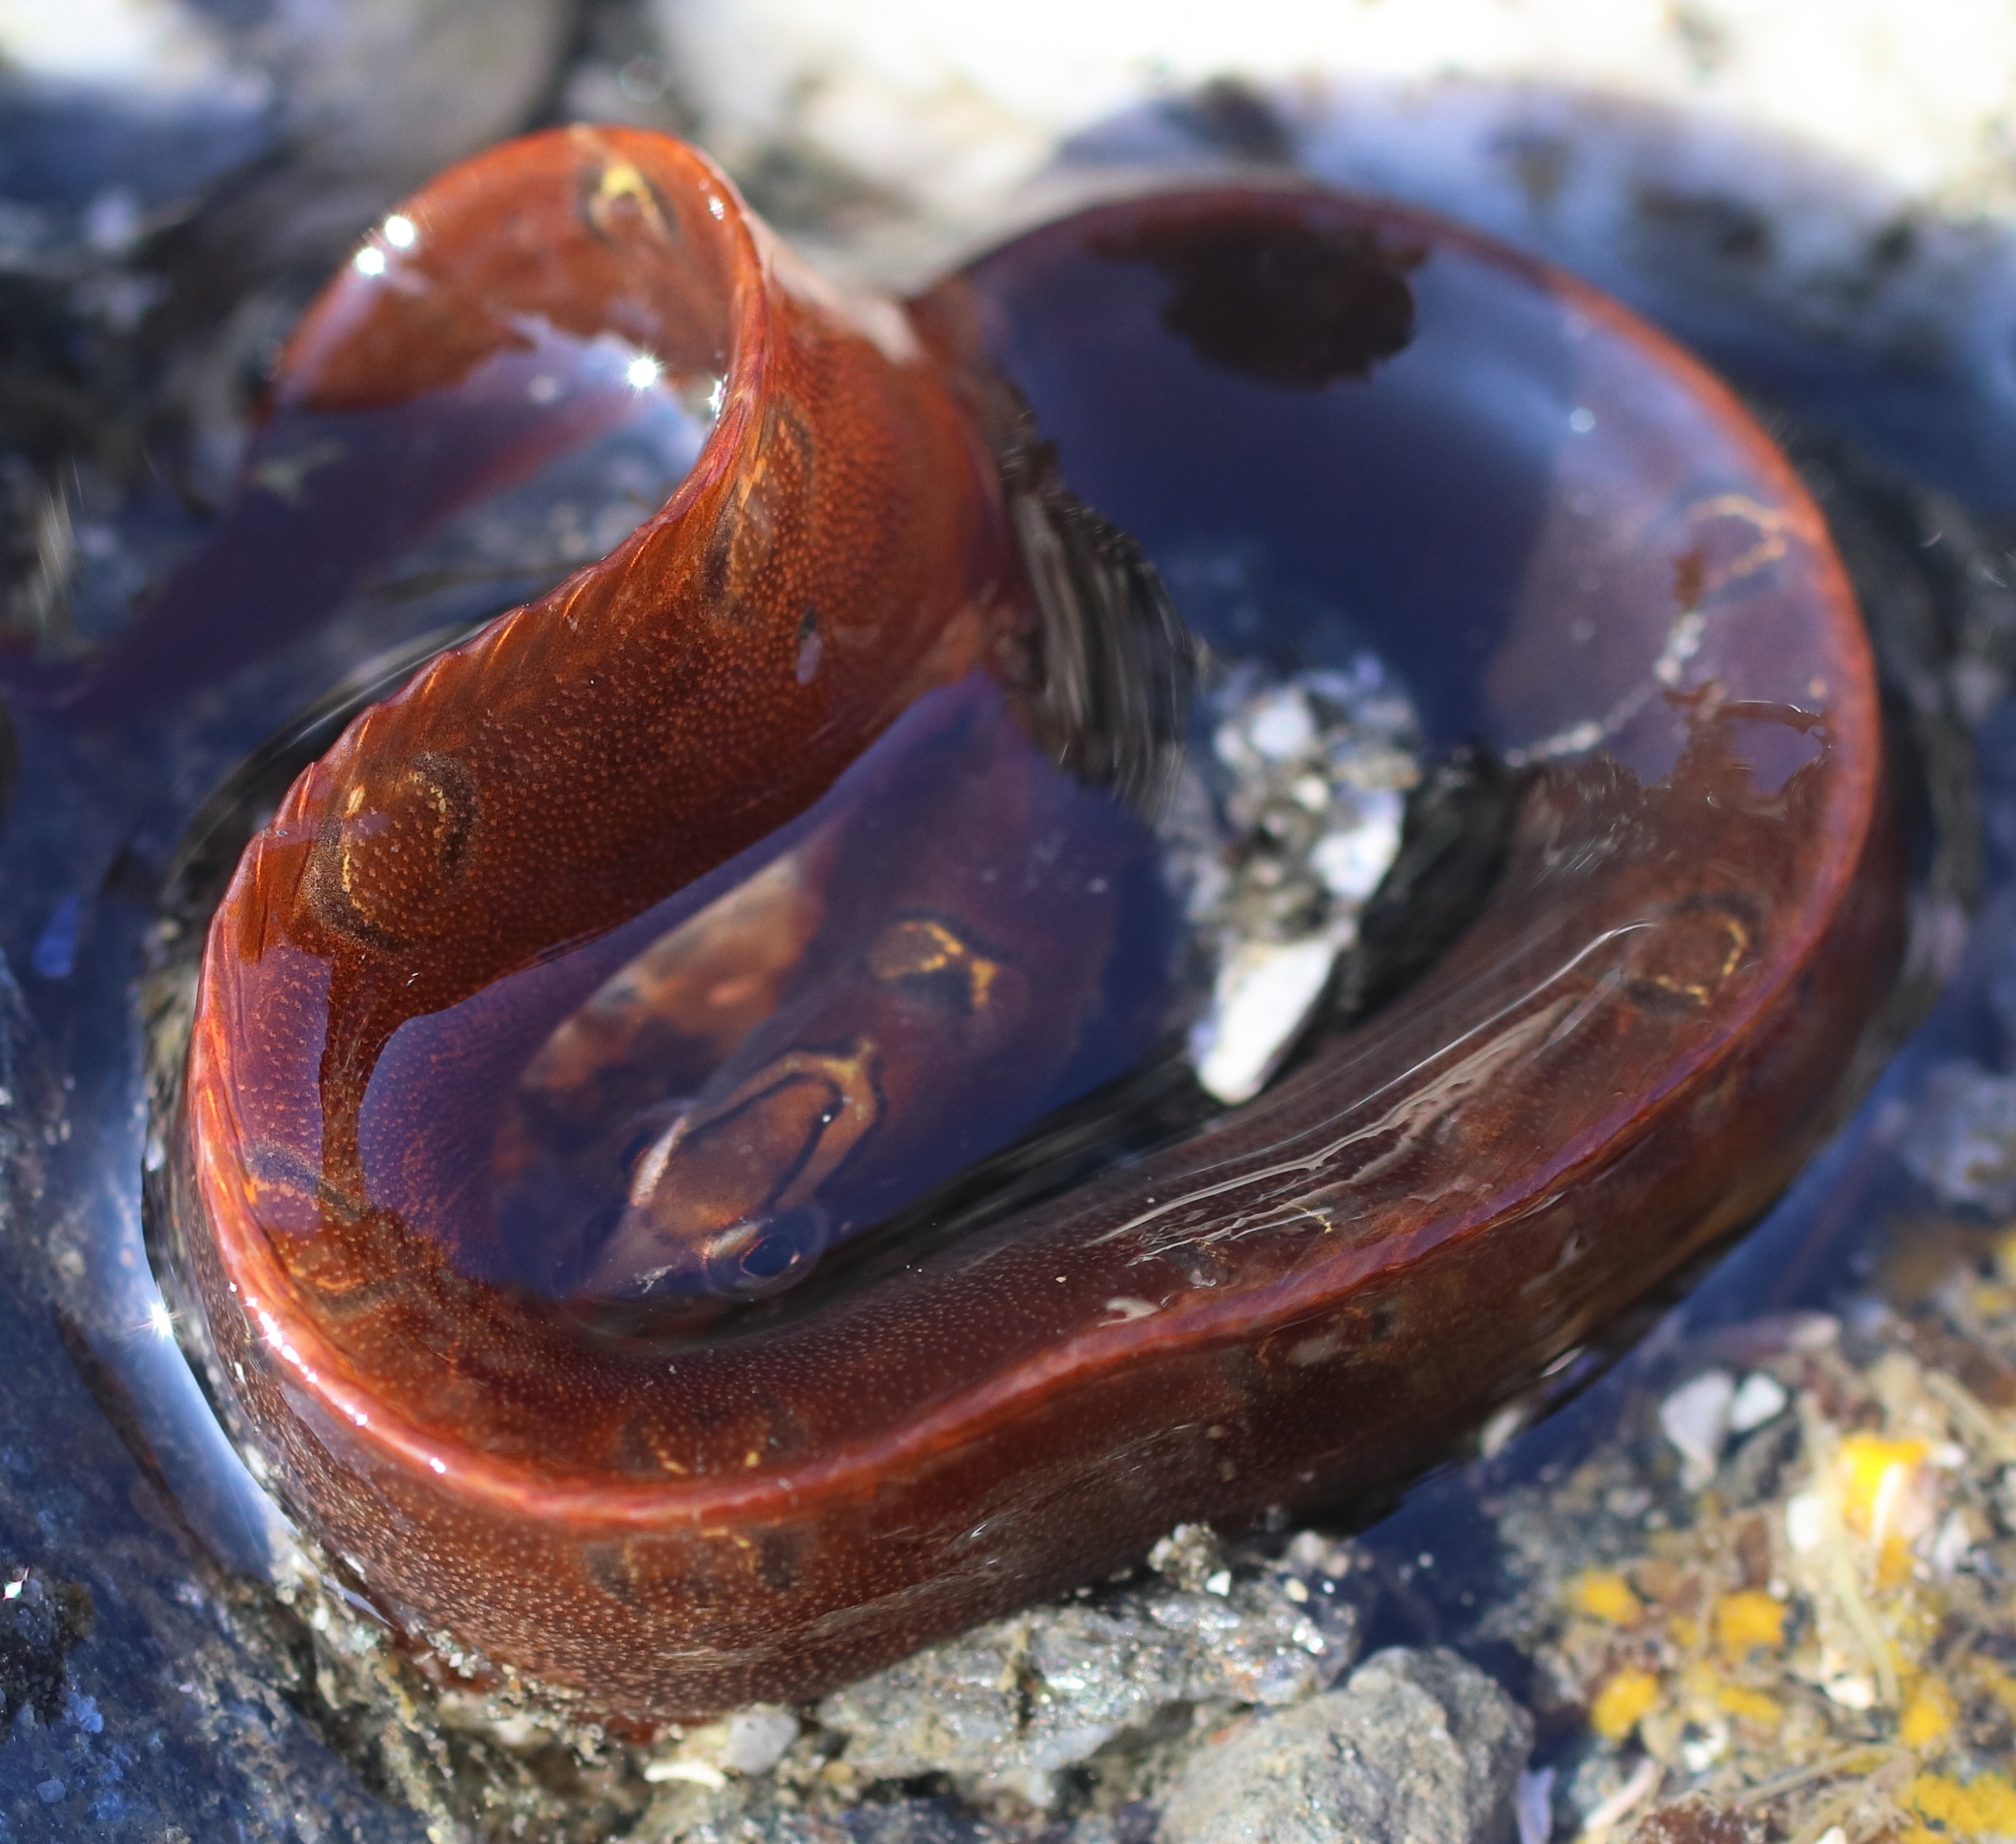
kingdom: Animalia
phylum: Chordata
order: Perciformes
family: Pholidae
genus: Pholis
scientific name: Pholis laeta
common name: Crescent gunnel
